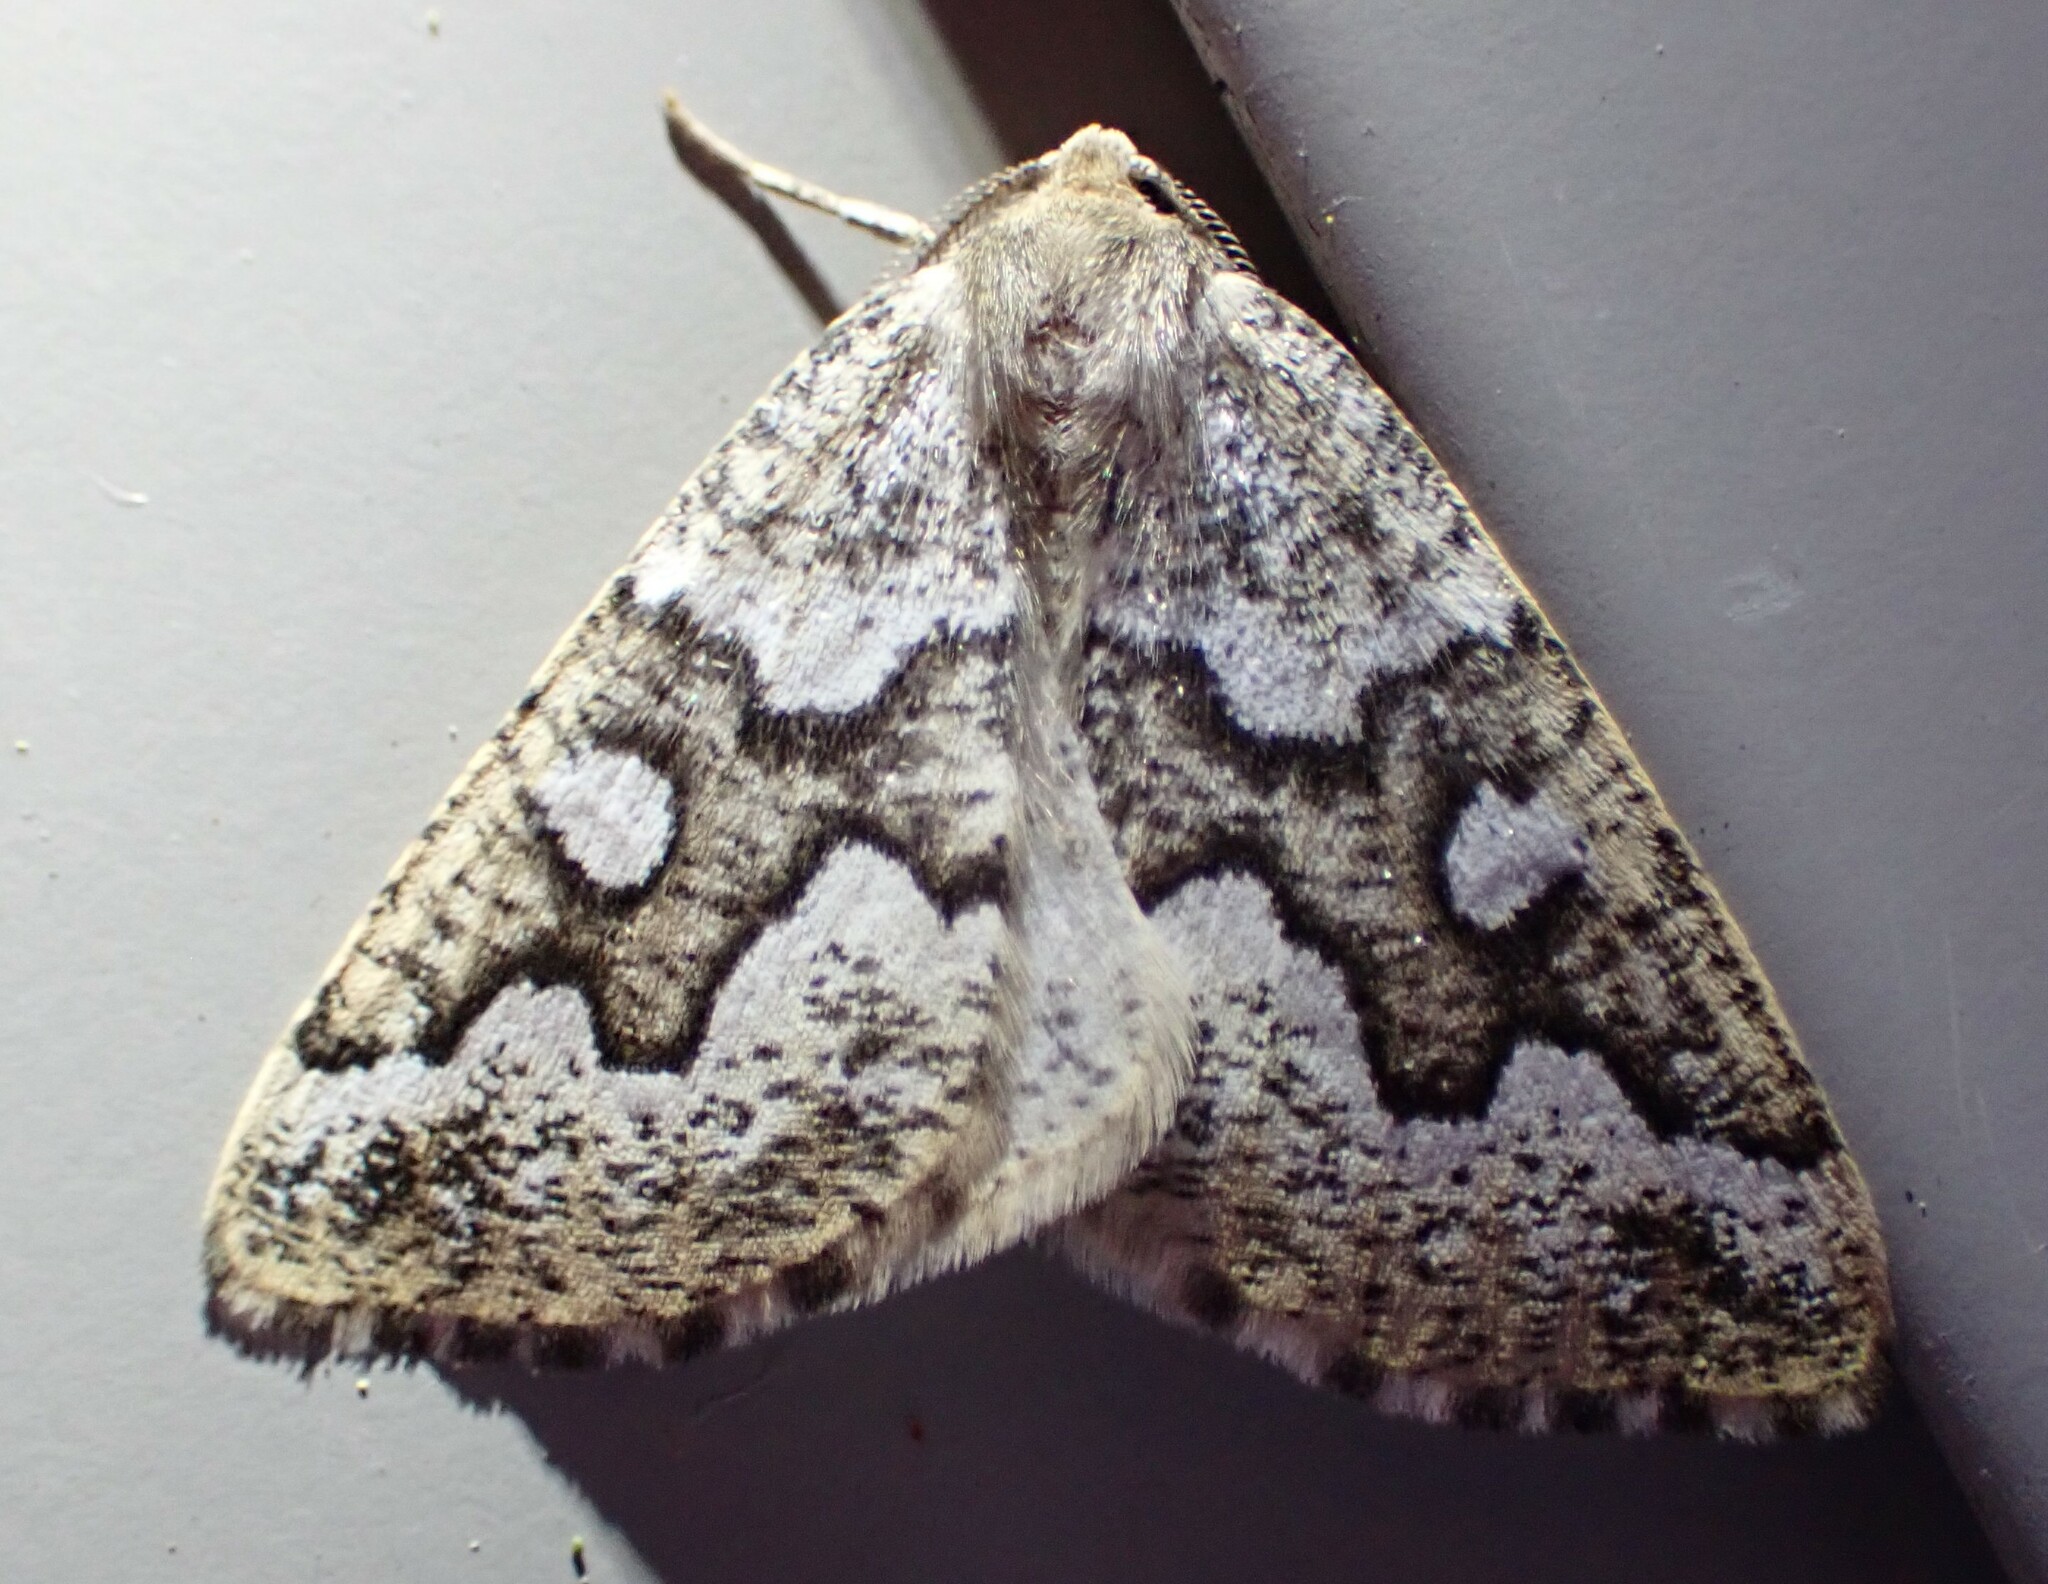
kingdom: Animalia
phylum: Arthropoda
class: Insecta
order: Lepidoptera
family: Geometridae
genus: Caripeta
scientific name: Caripeta divisata
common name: Gray spruce looper
